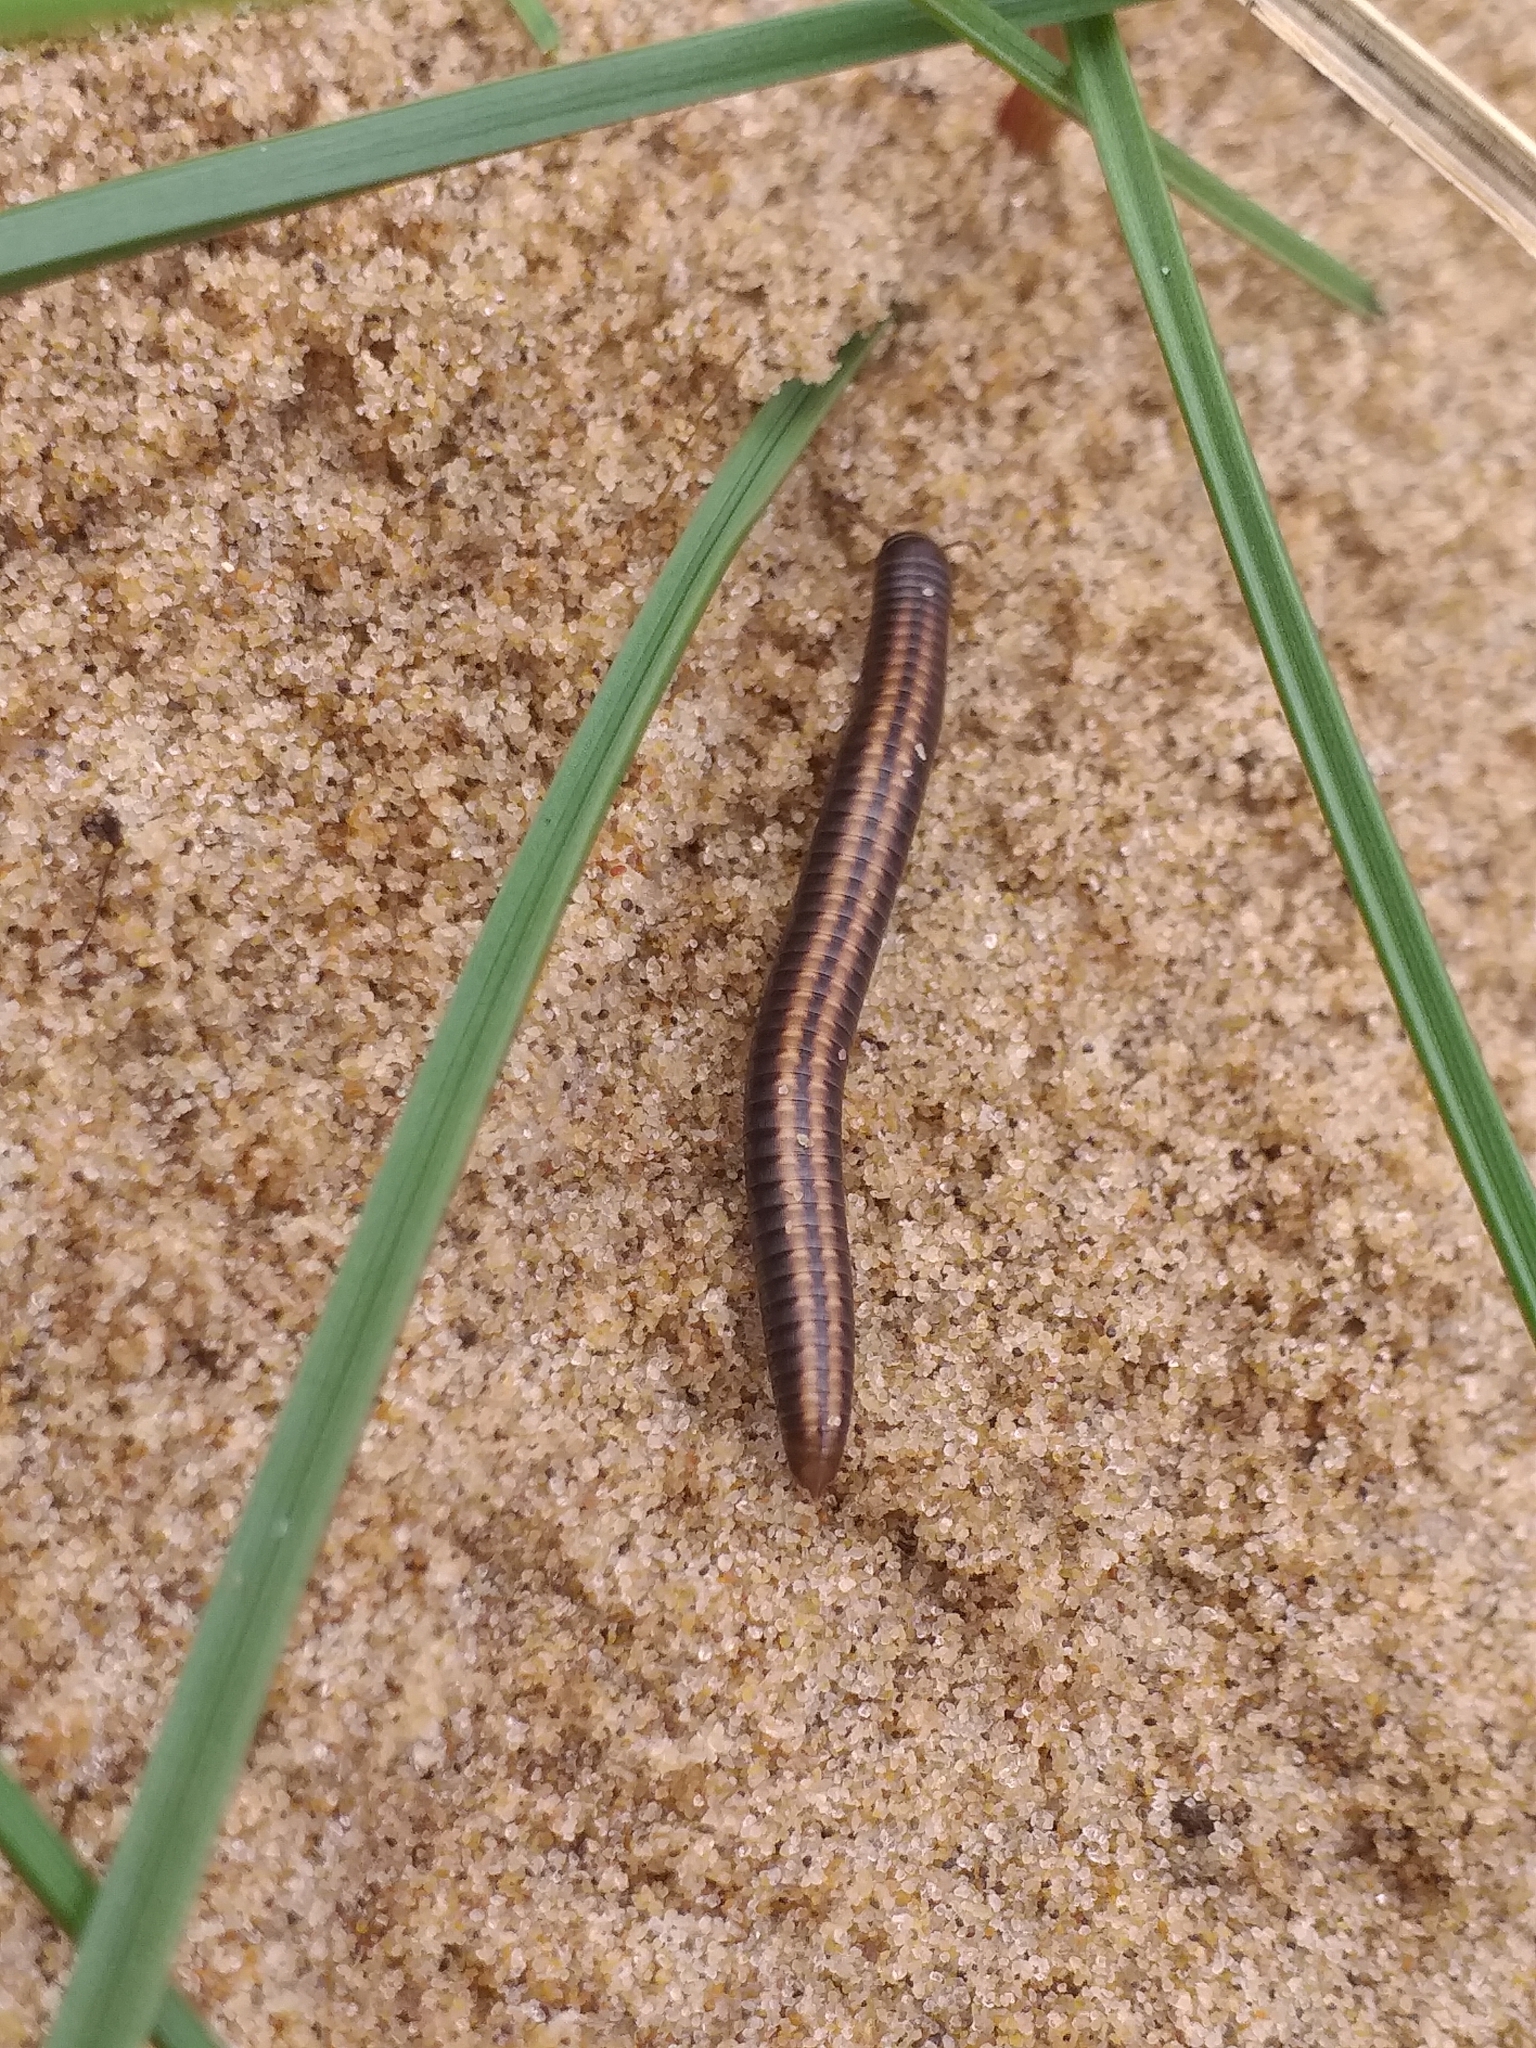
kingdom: Animalia
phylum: Arthropoda
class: Diplopoda
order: Julida
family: Julidae
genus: Ommatoiulus
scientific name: Ommatoiulus sabulosus
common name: Striped millipede
